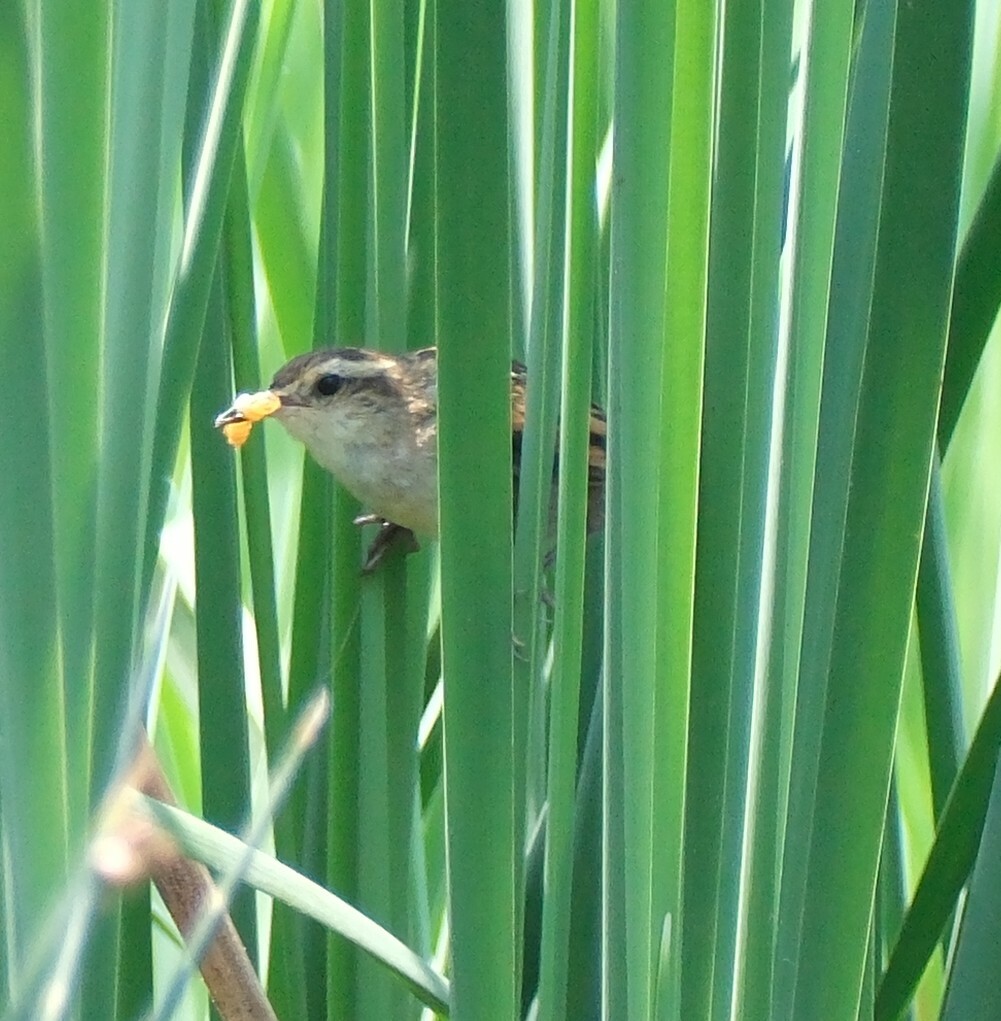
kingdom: Animalia
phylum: Chordata
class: Aves
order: Passeriformes
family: Furnariidae
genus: Phleocryptes
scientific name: Phleocryptes melanops
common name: Wren-like rushbird
